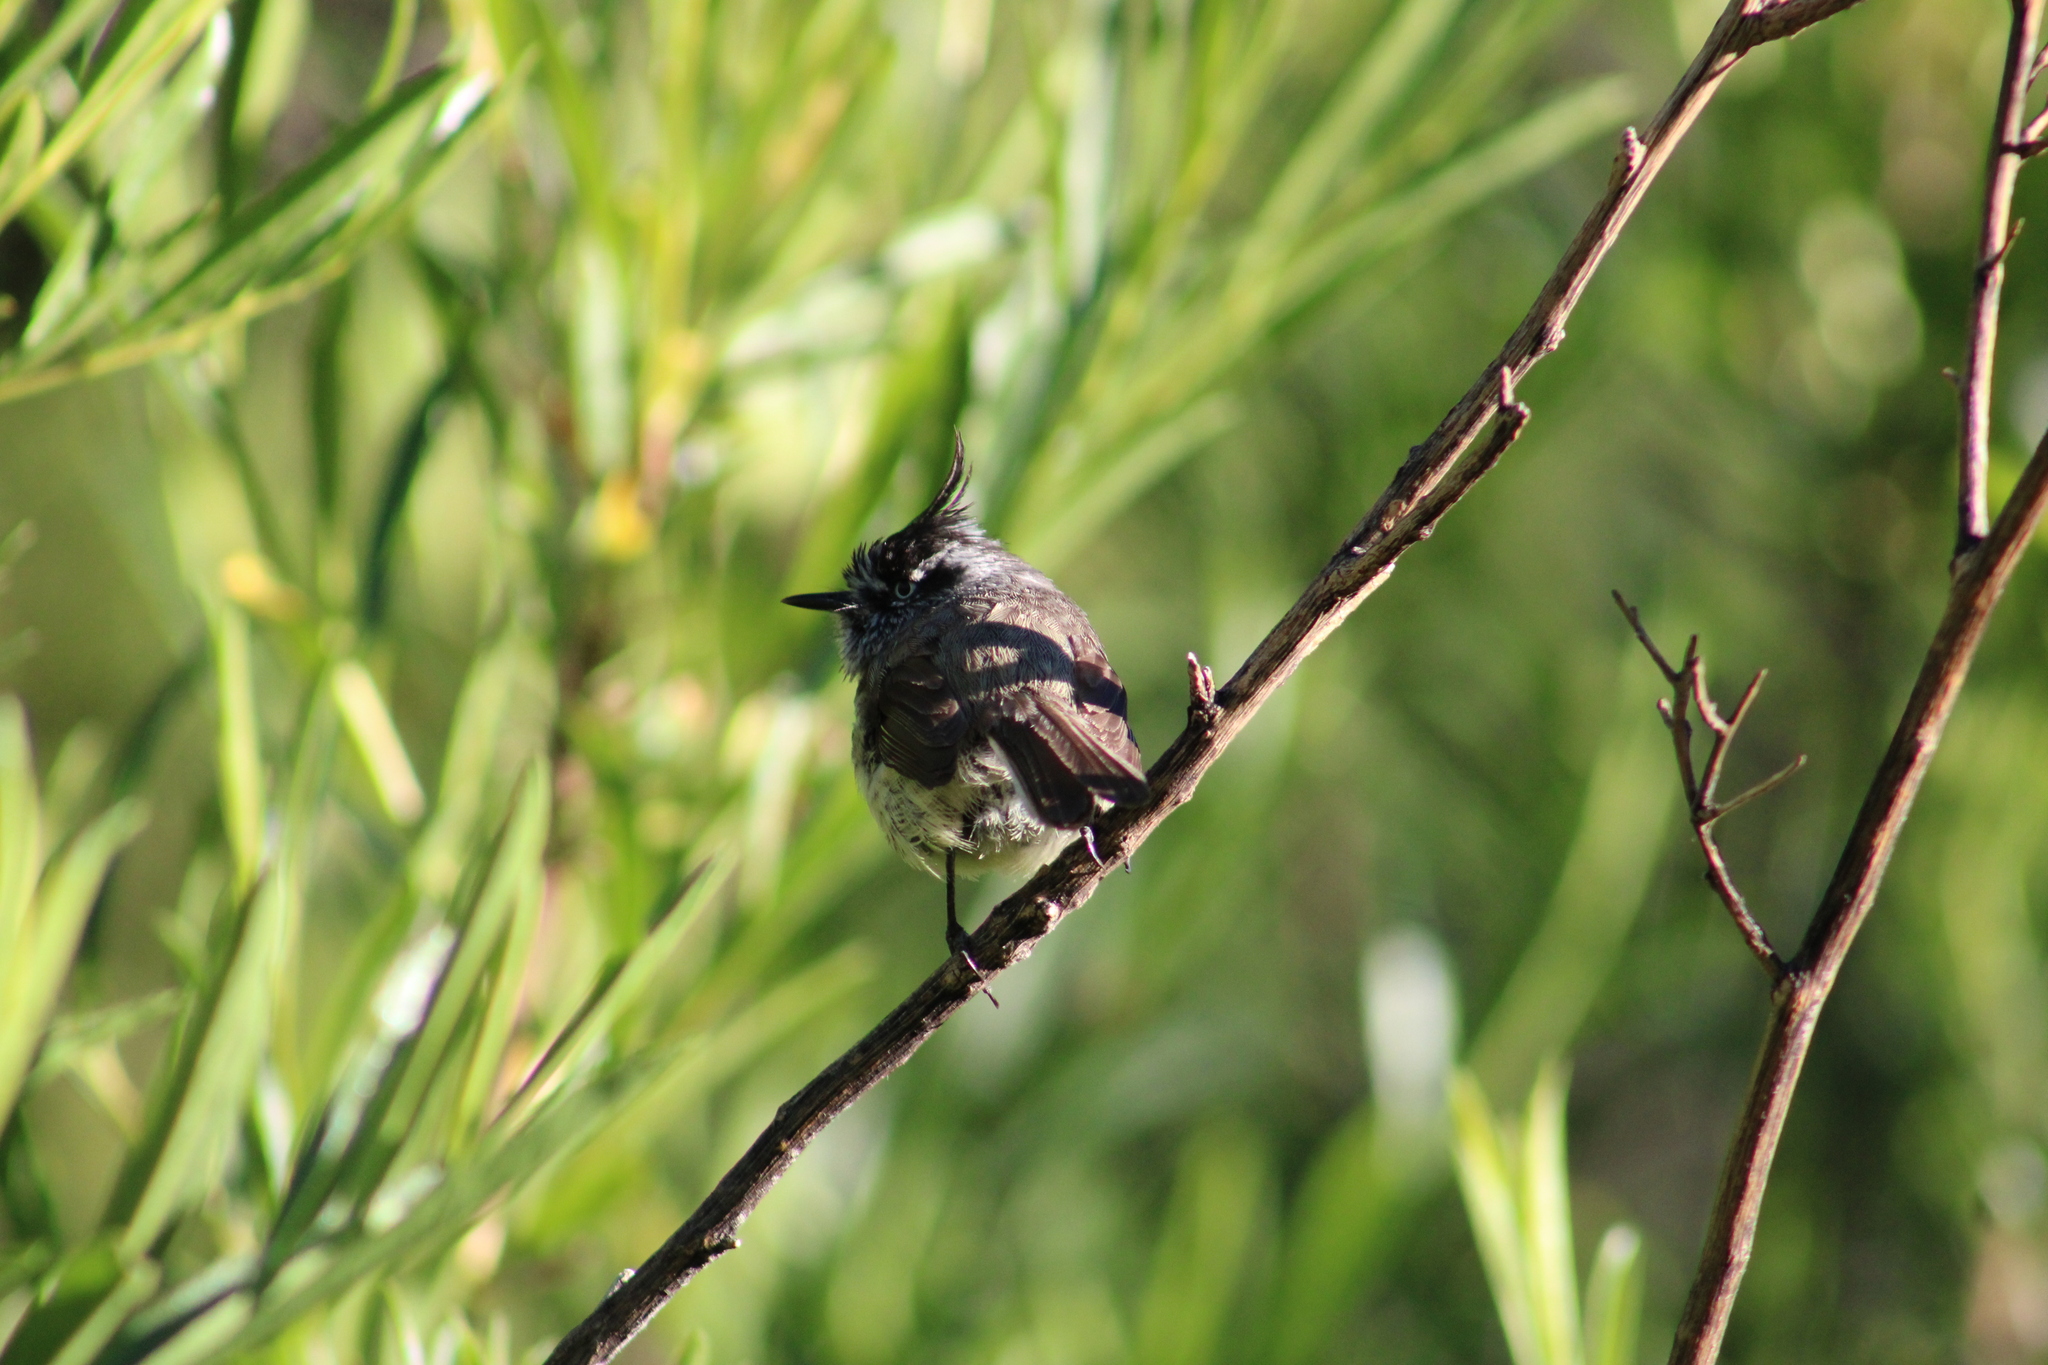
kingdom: Animalia
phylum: Chordata
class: Aves
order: Passeriformes
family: Tyrannidae
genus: Anairetes
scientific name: Anairetes parulus
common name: Tufted tit-tyrant
